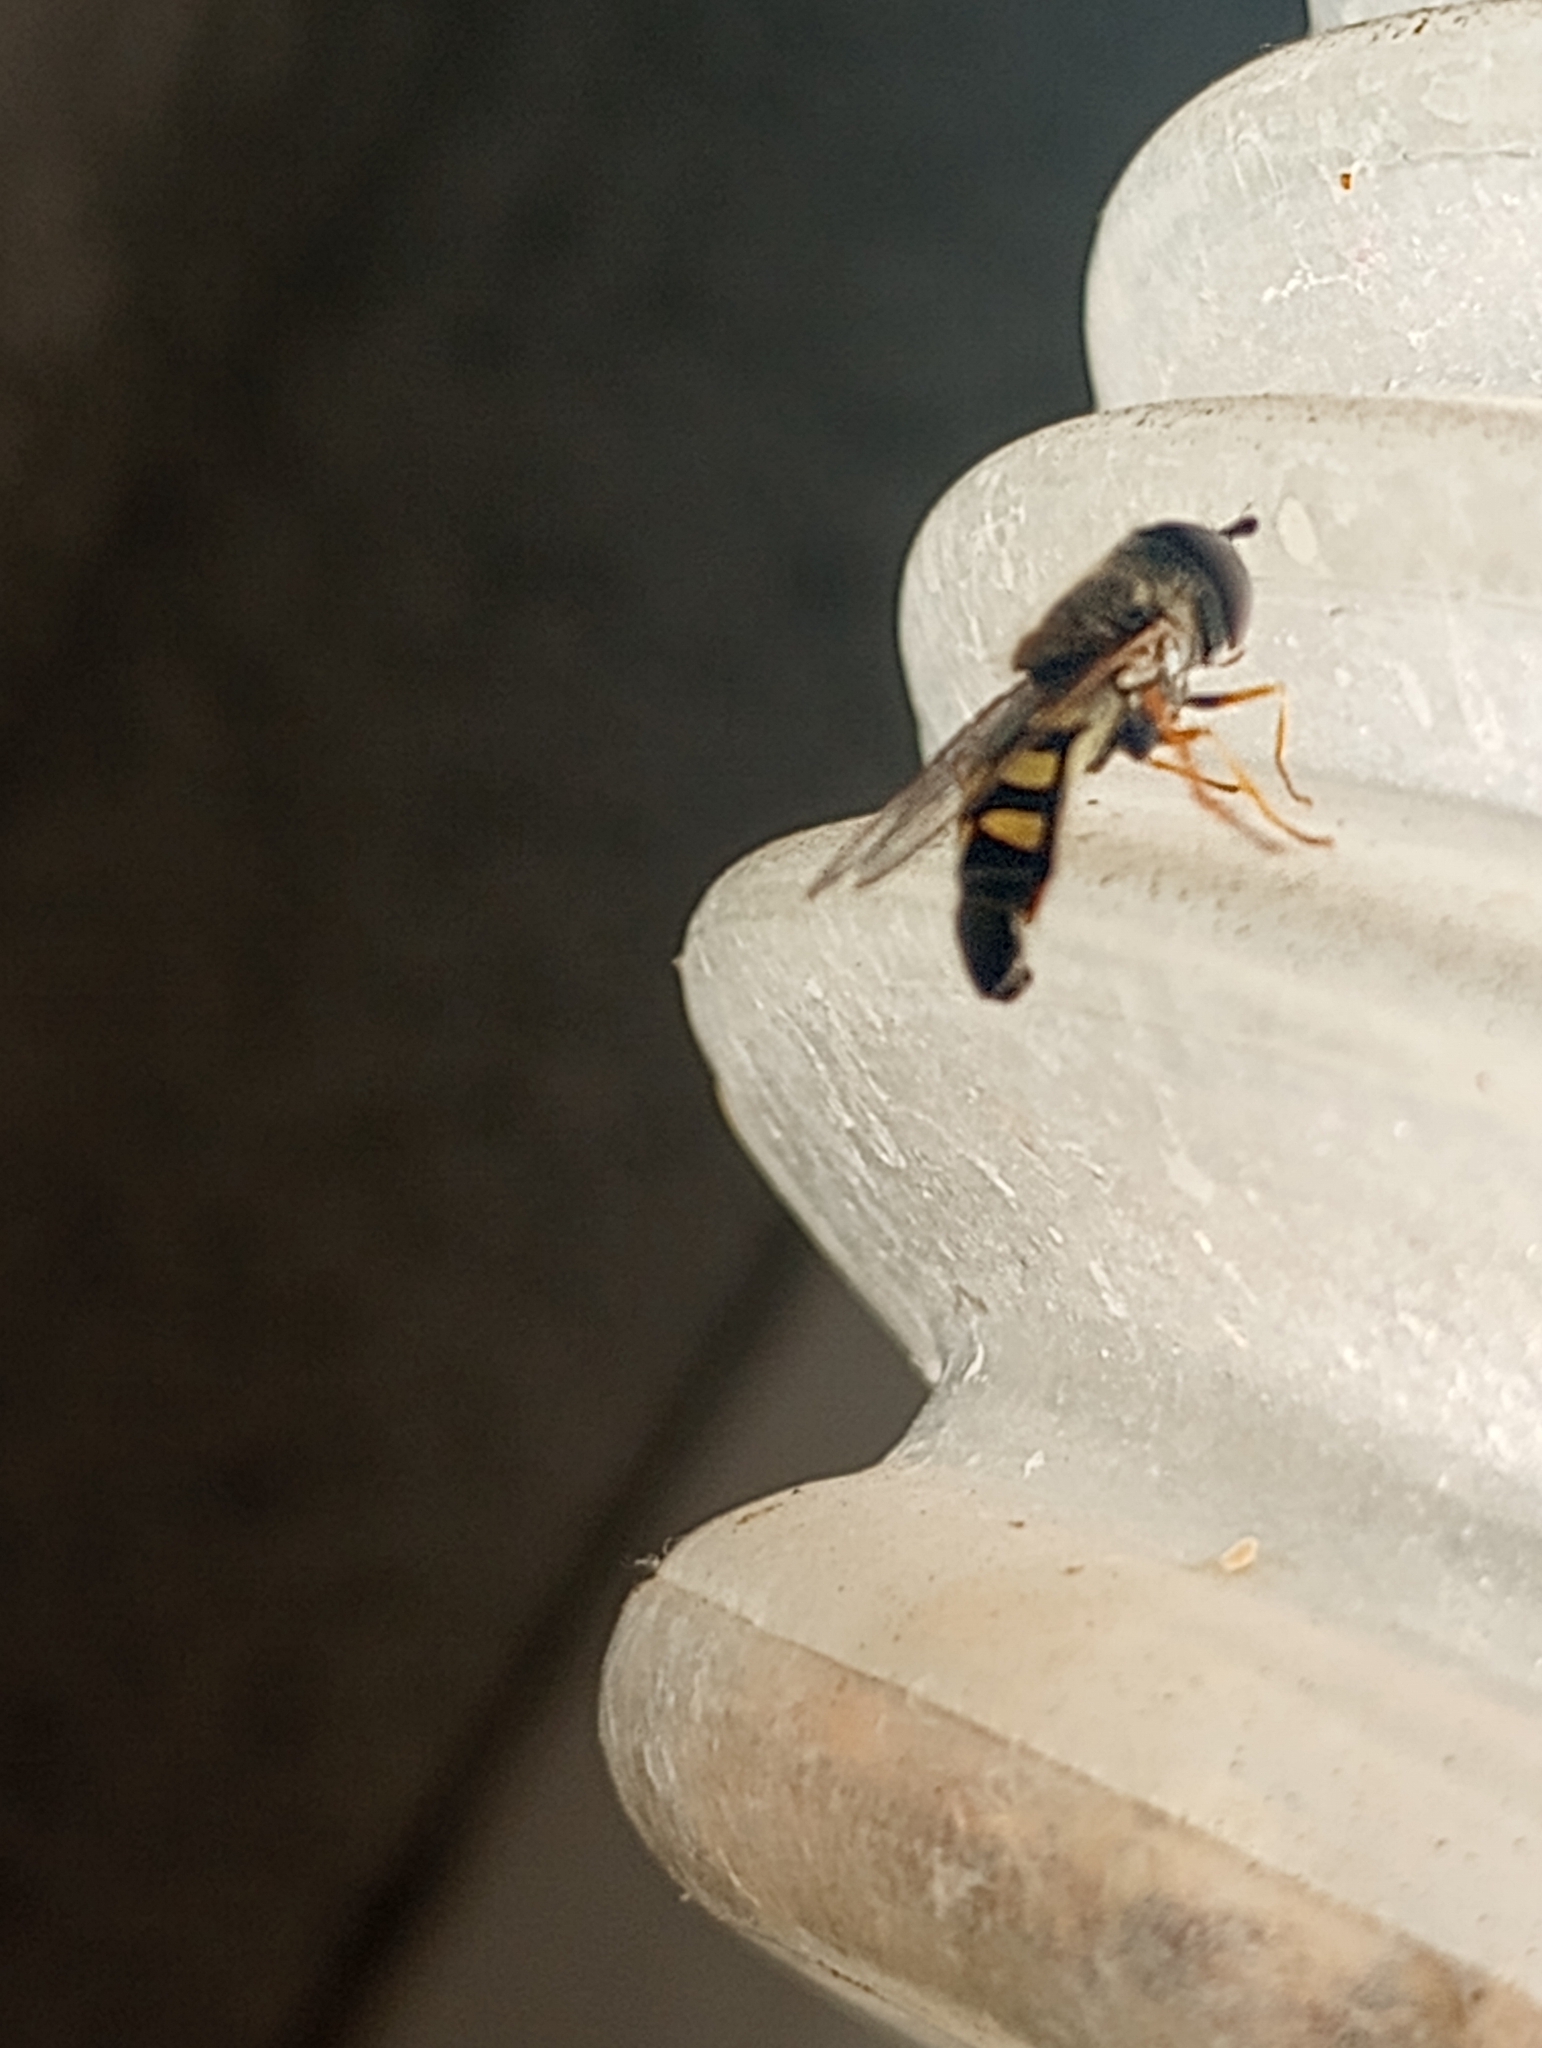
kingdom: Animalia
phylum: Arthropoda
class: Insecta
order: Diptera
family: Syrphidae
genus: Eupeodes
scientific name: Eupeodes volucris
